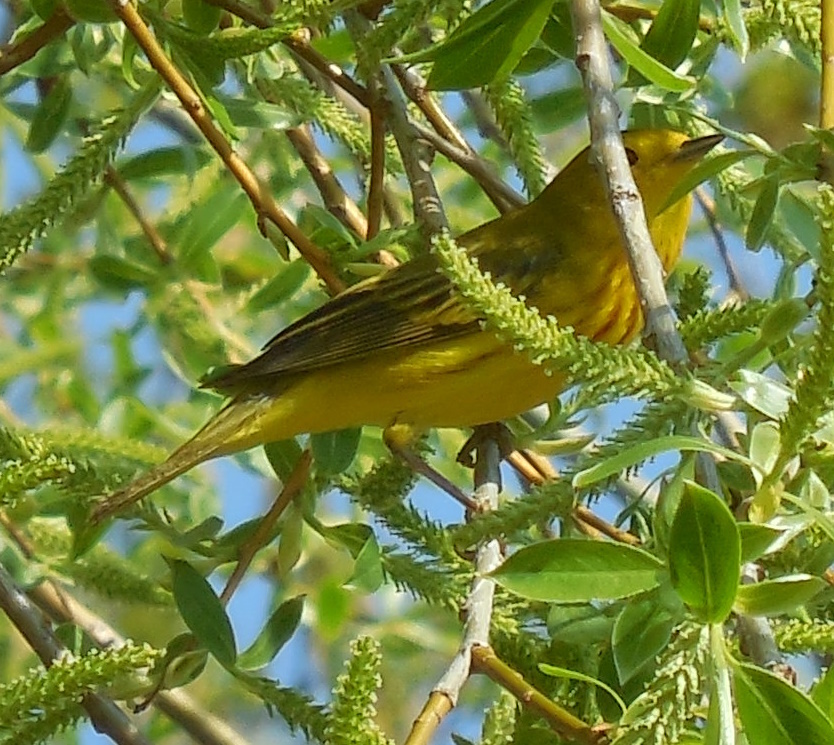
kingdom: Animalia
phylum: Chordata
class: Aves
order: Passeriformes
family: Parulidae
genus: Setophaga
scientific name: Setophaga petechia
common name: Yellow warbler
